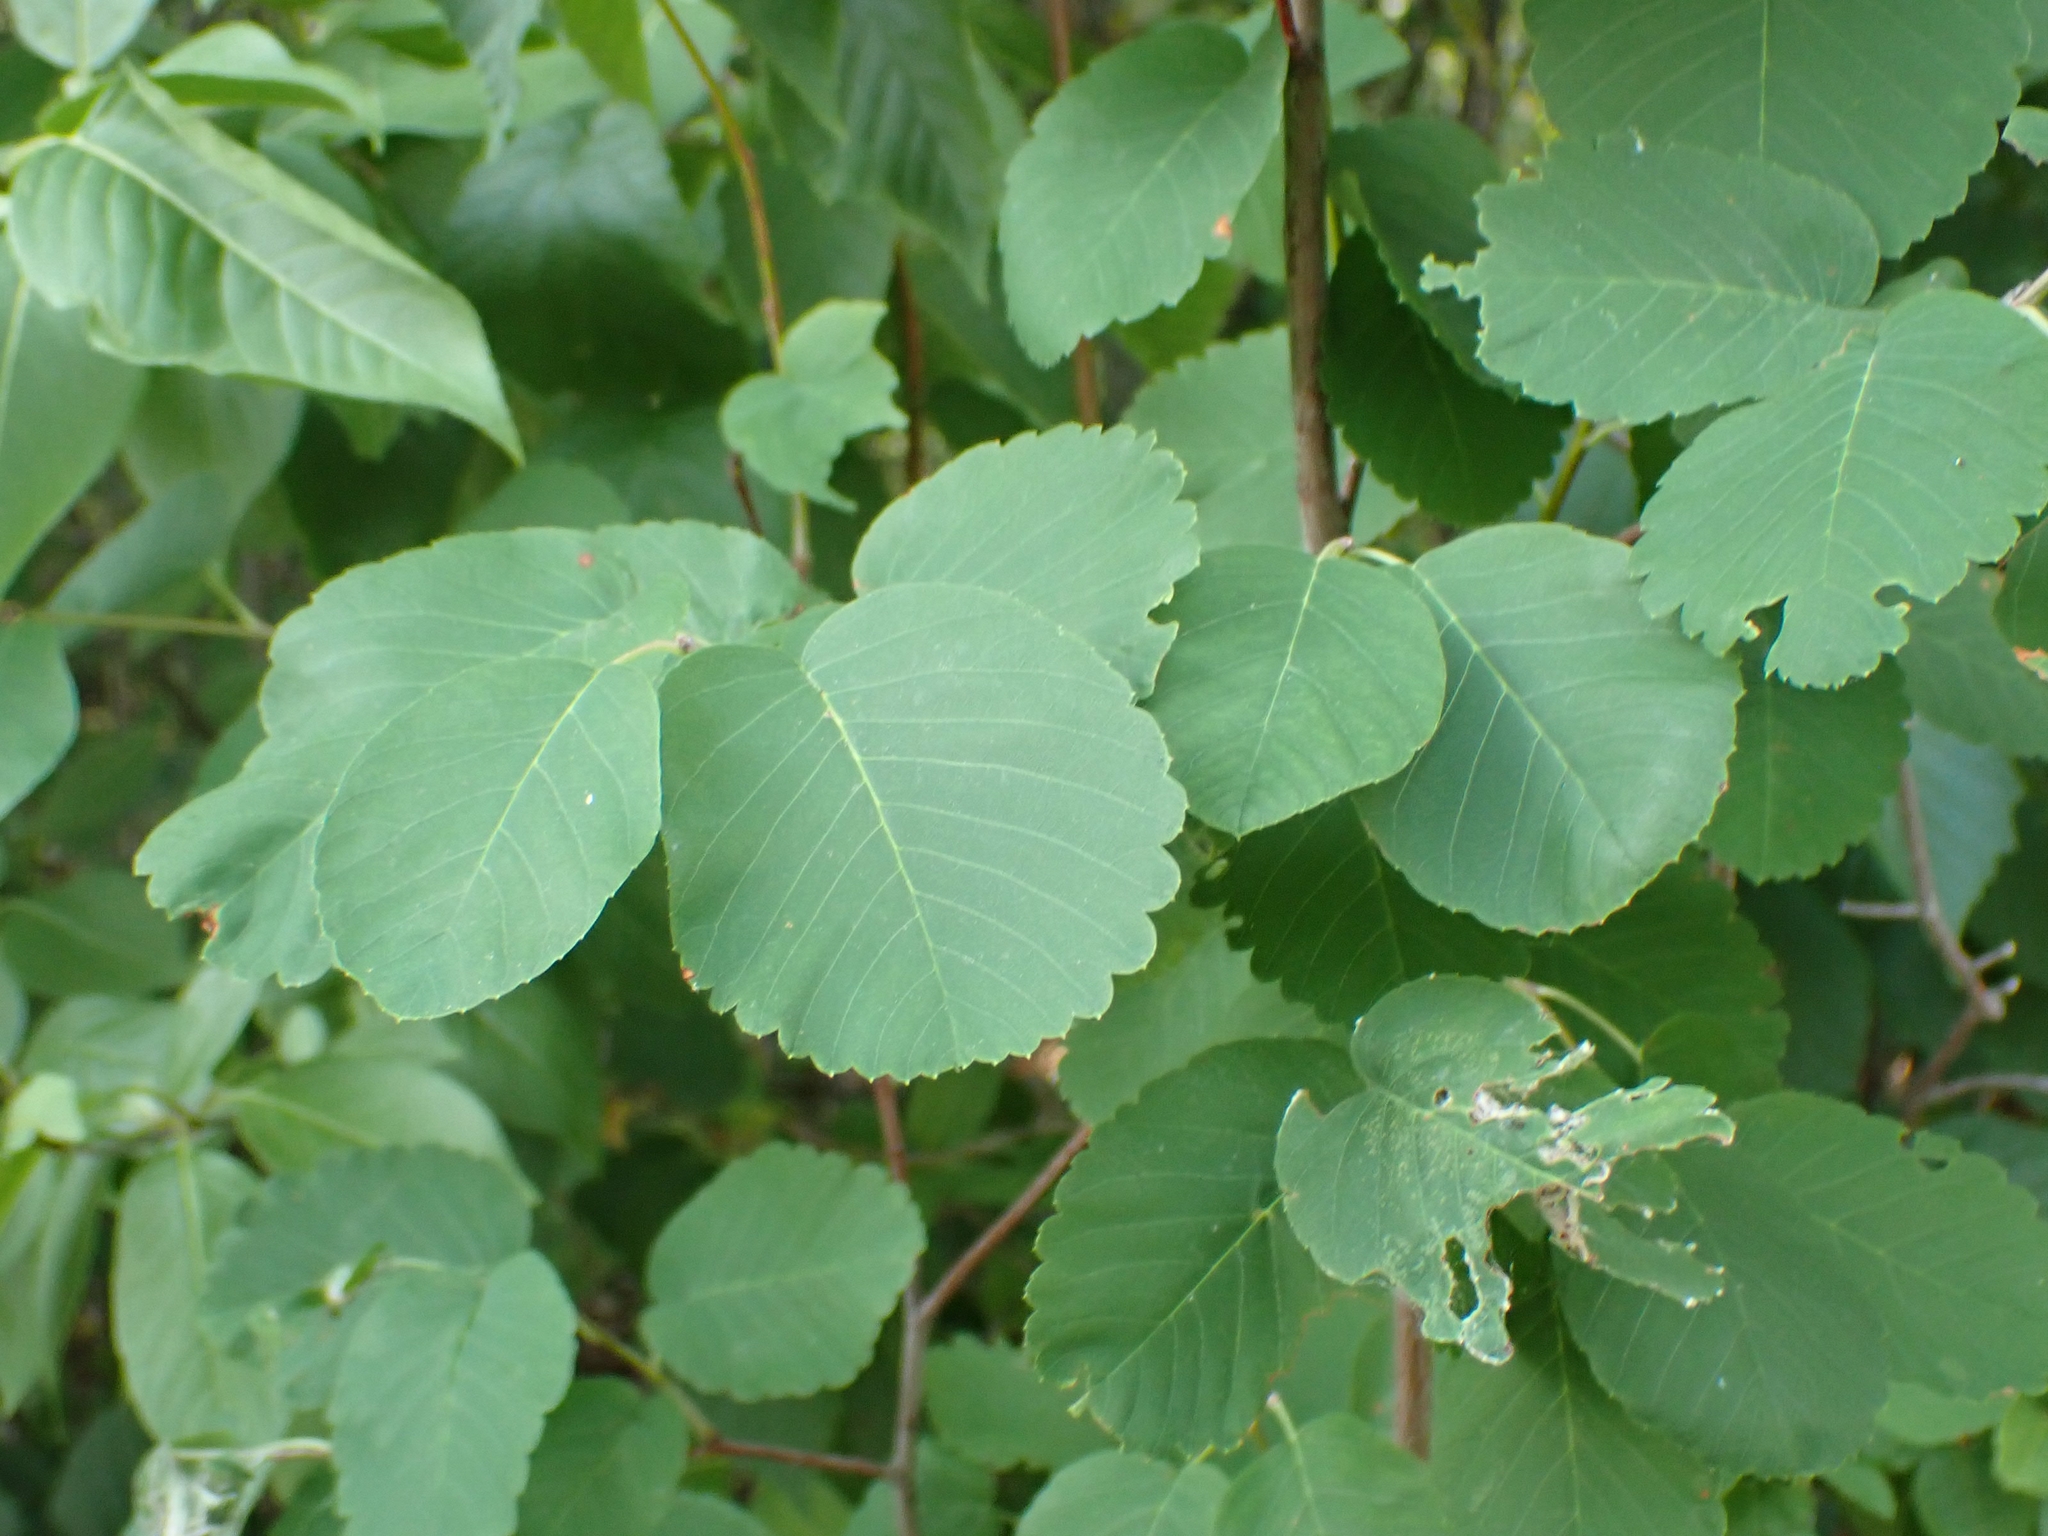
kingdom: Plantae
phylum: Tracheophyta
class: Magnoliopsida
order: Rosales
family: Rosaceae
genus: Amelanchier
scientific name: Amelanchier alnifolia
